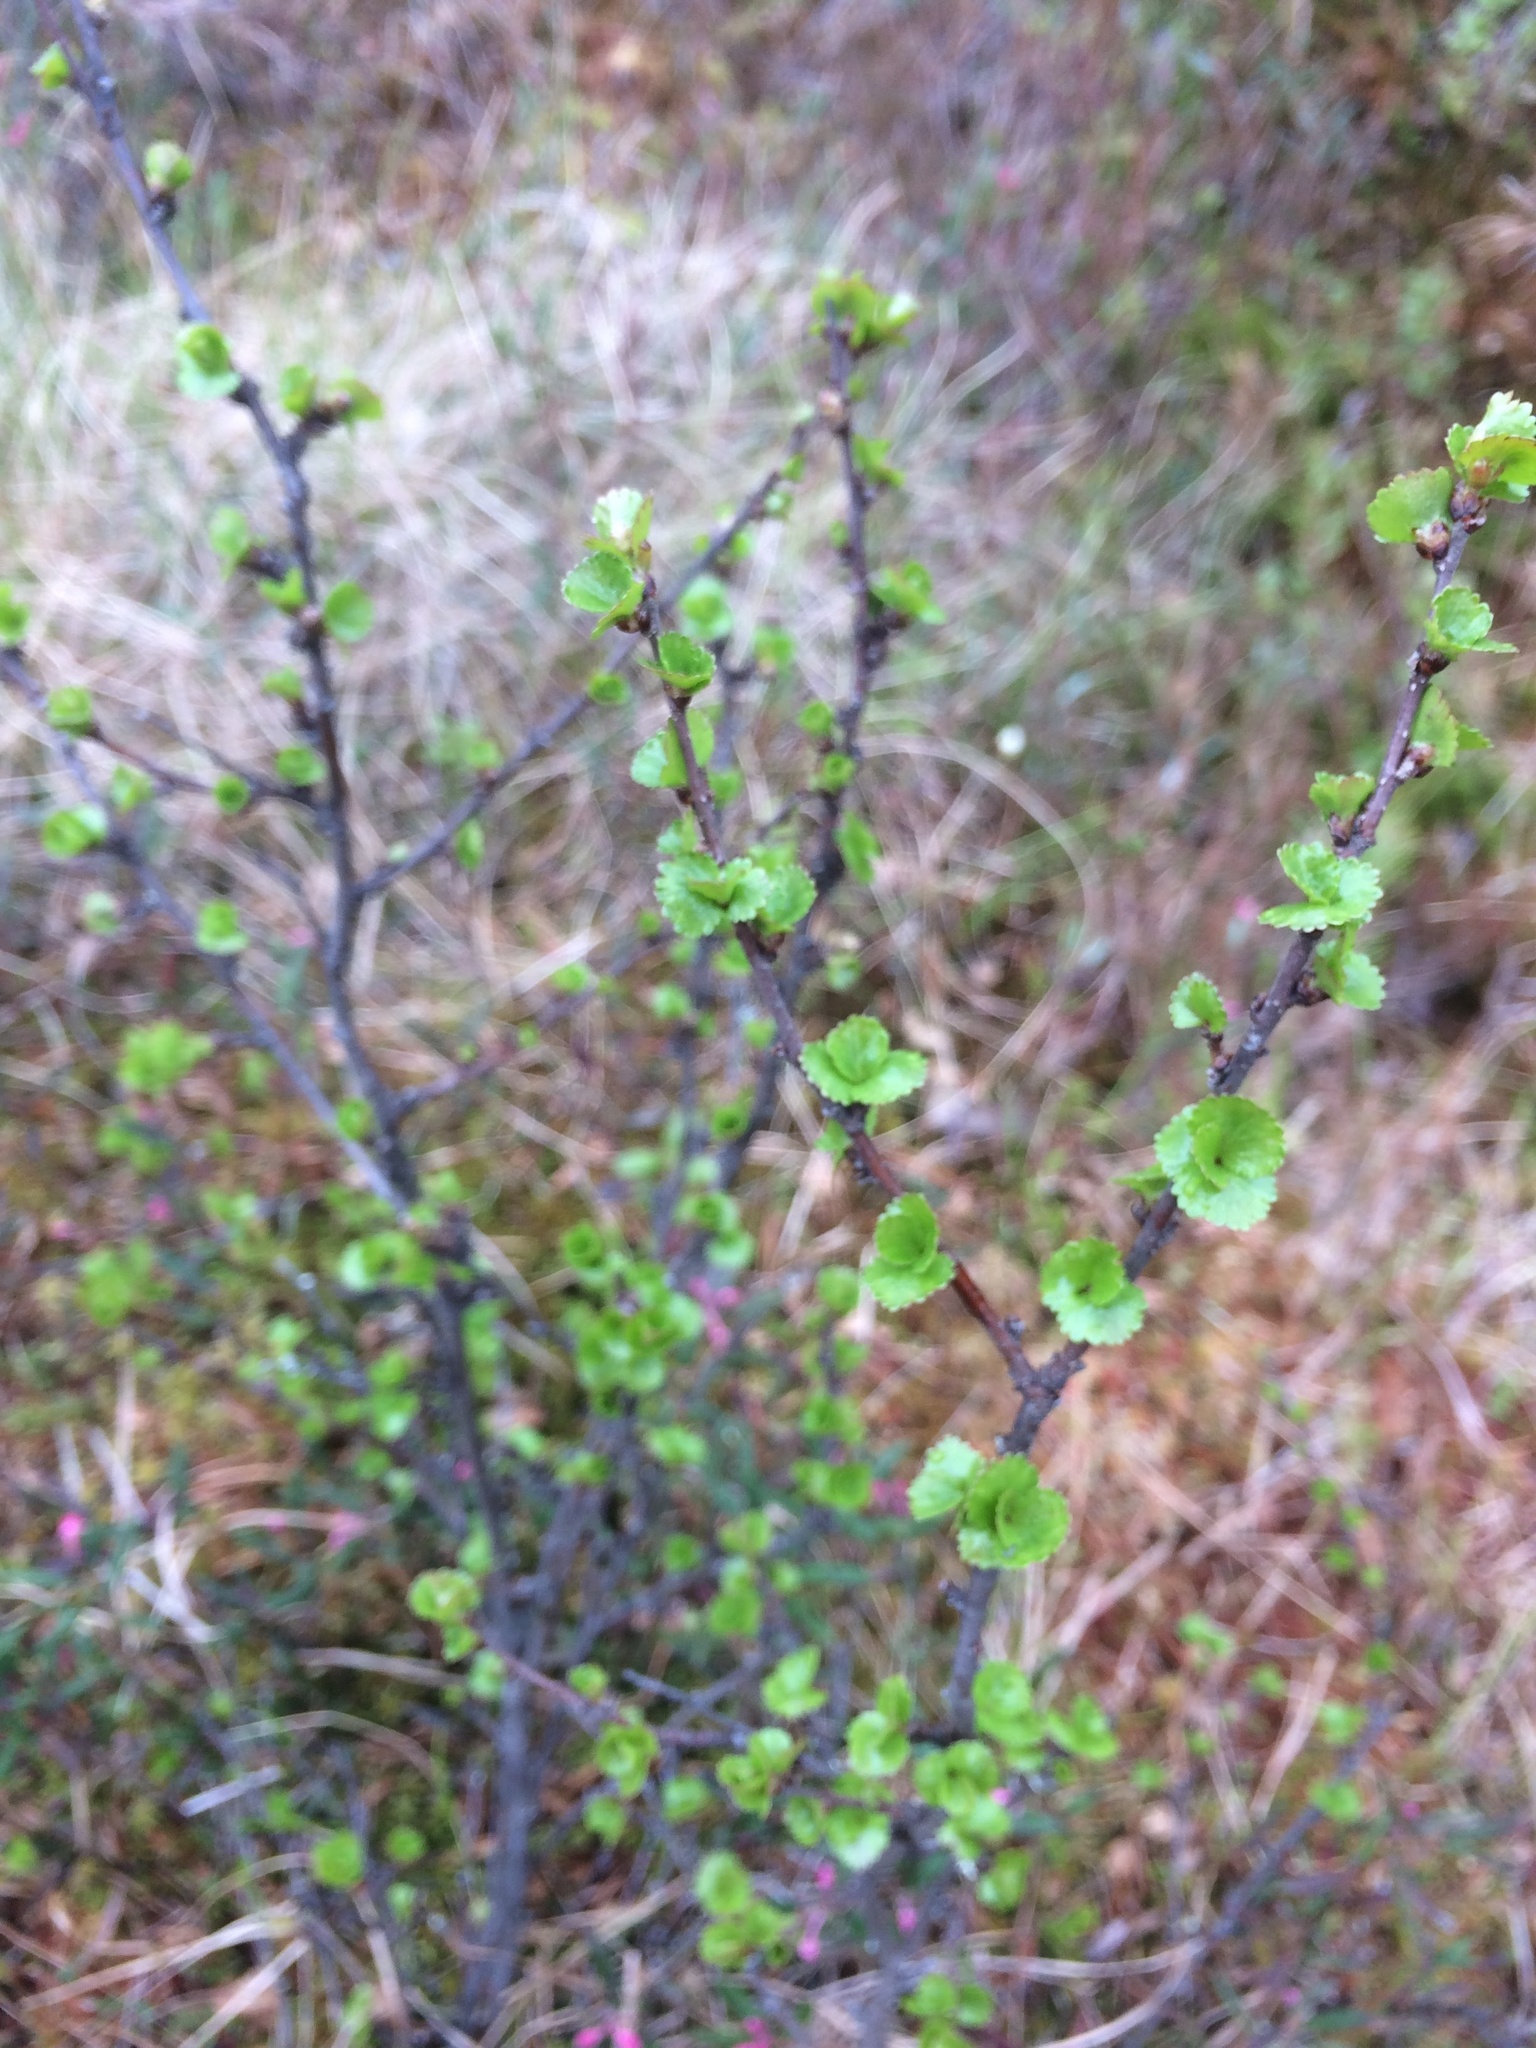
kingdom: Plantae
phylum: Tracheophyta
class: Magnoliopsida
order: Fagales
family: Betulaceae
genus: Betula
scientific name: Betula nana
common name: Arctic dwarf birch
